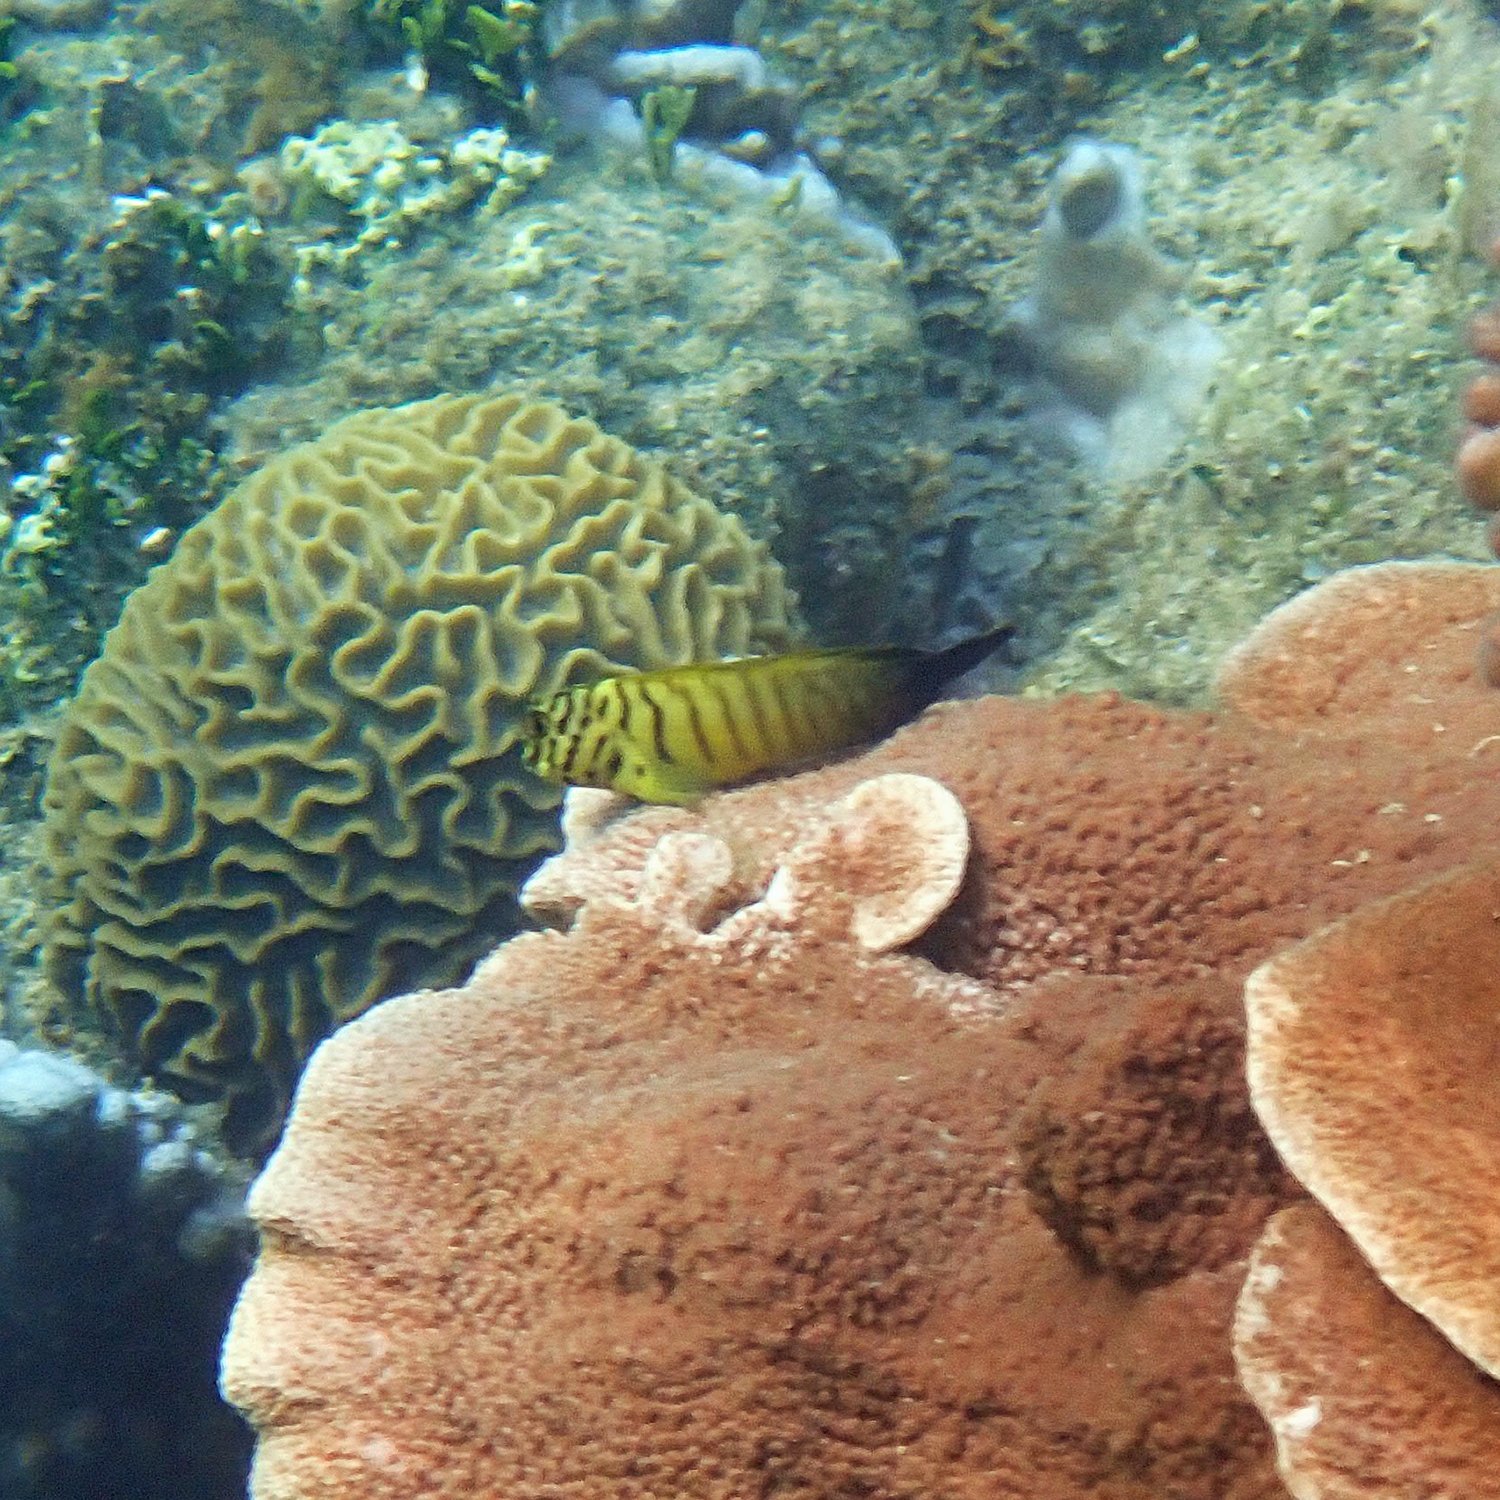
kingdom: Animalia
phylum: Chordata
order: Perciformes
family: Blenniidae
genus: Cirripectes
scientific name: Cirripectes castaneus
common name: Chestnut blenny
